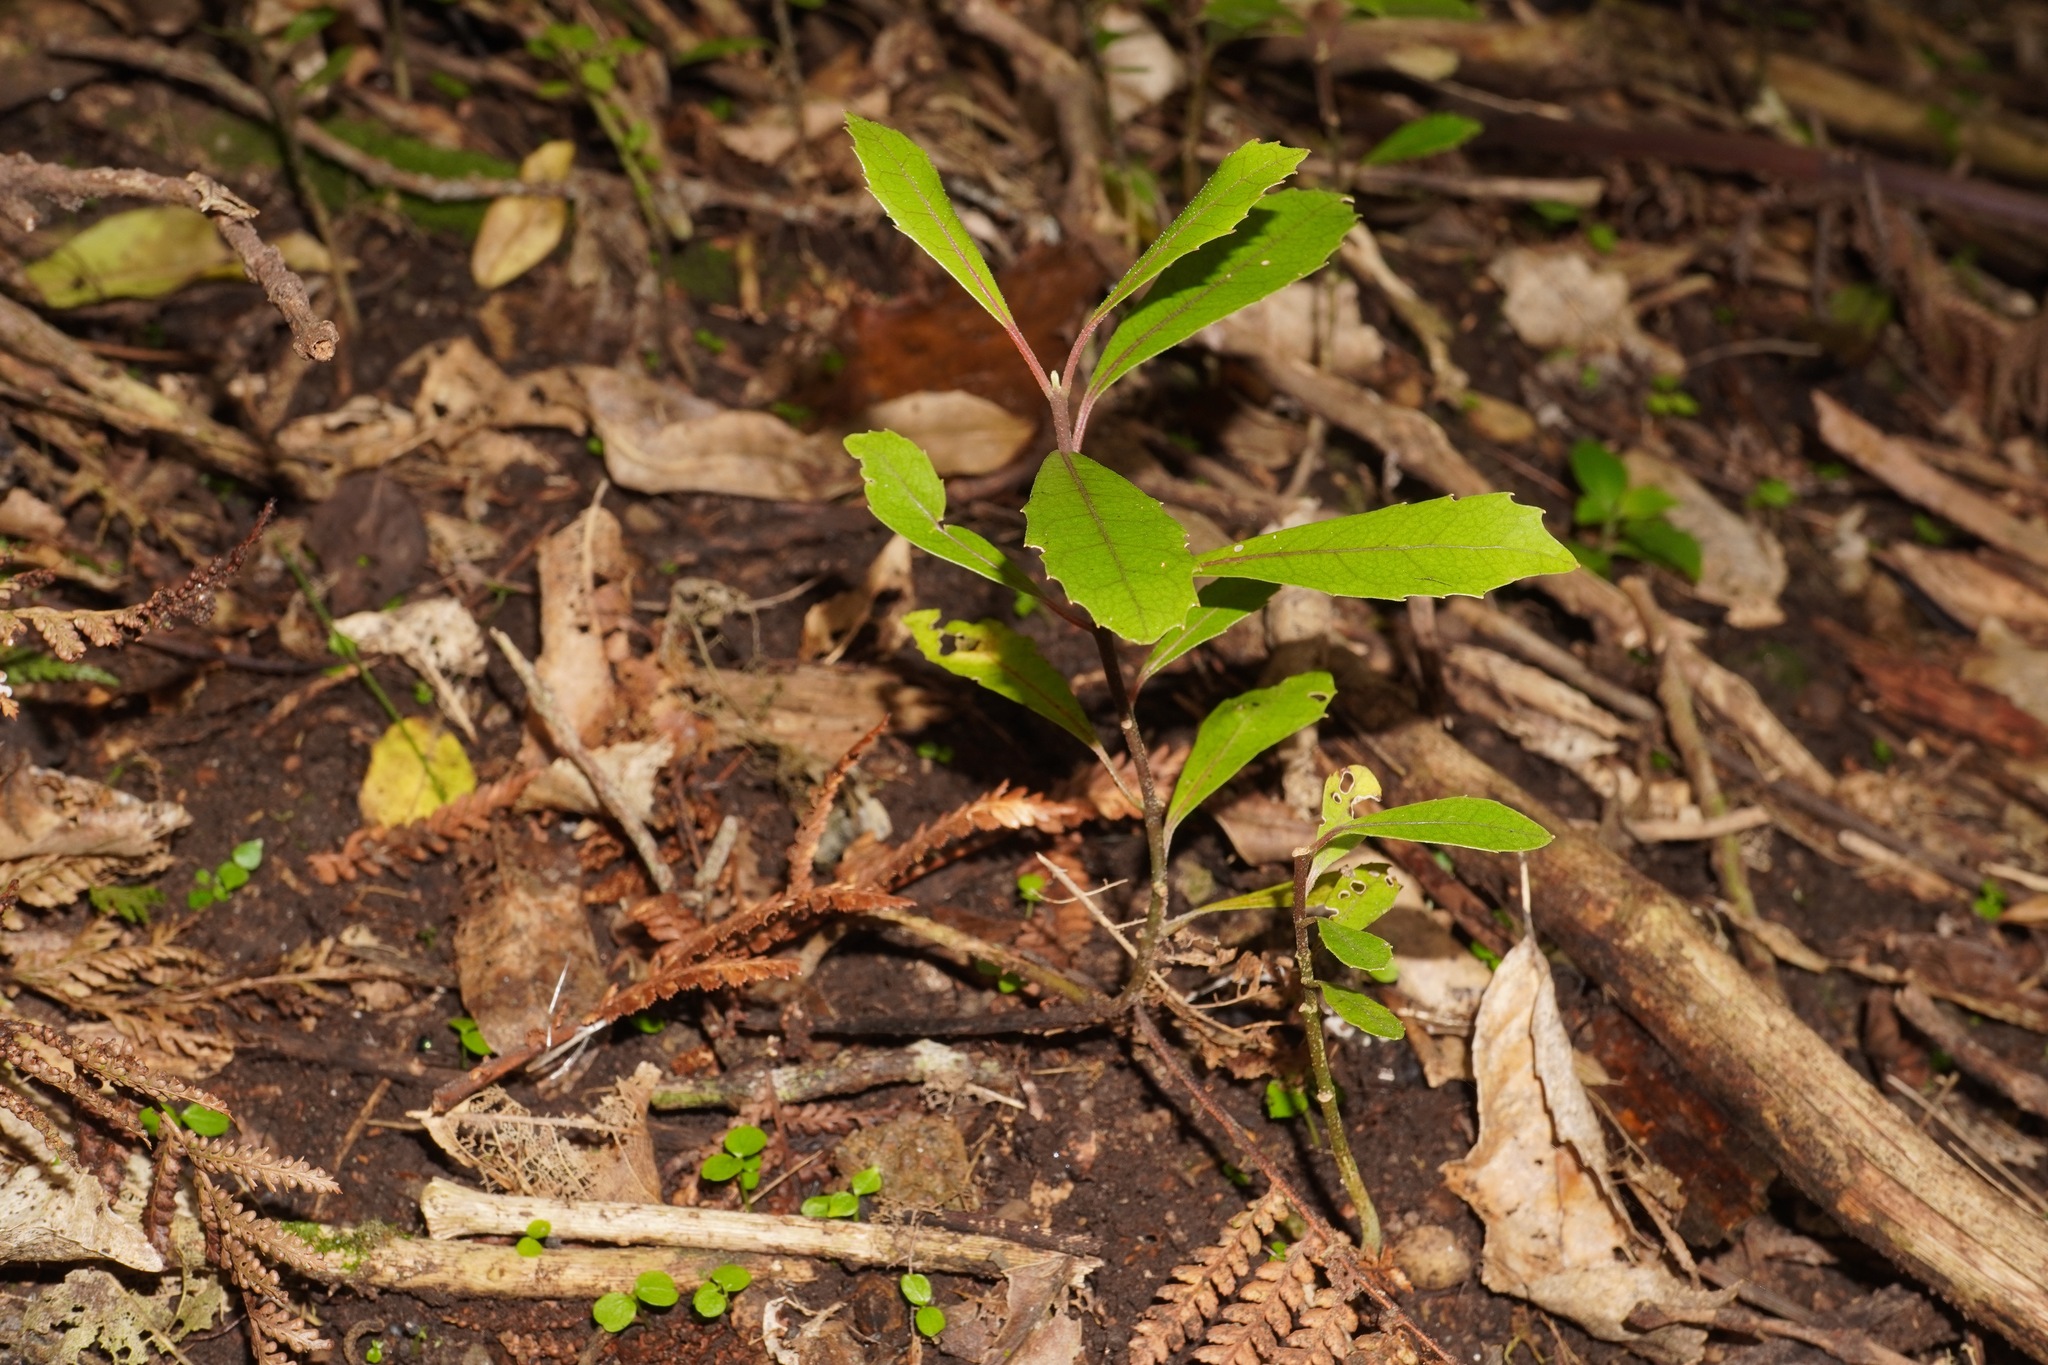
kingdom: Plantae
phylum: Tracheophyta
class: Magnoliopsida
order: Laurales
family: Monimiaceae
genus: Hedycarya
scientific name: Hedycarya arborea
